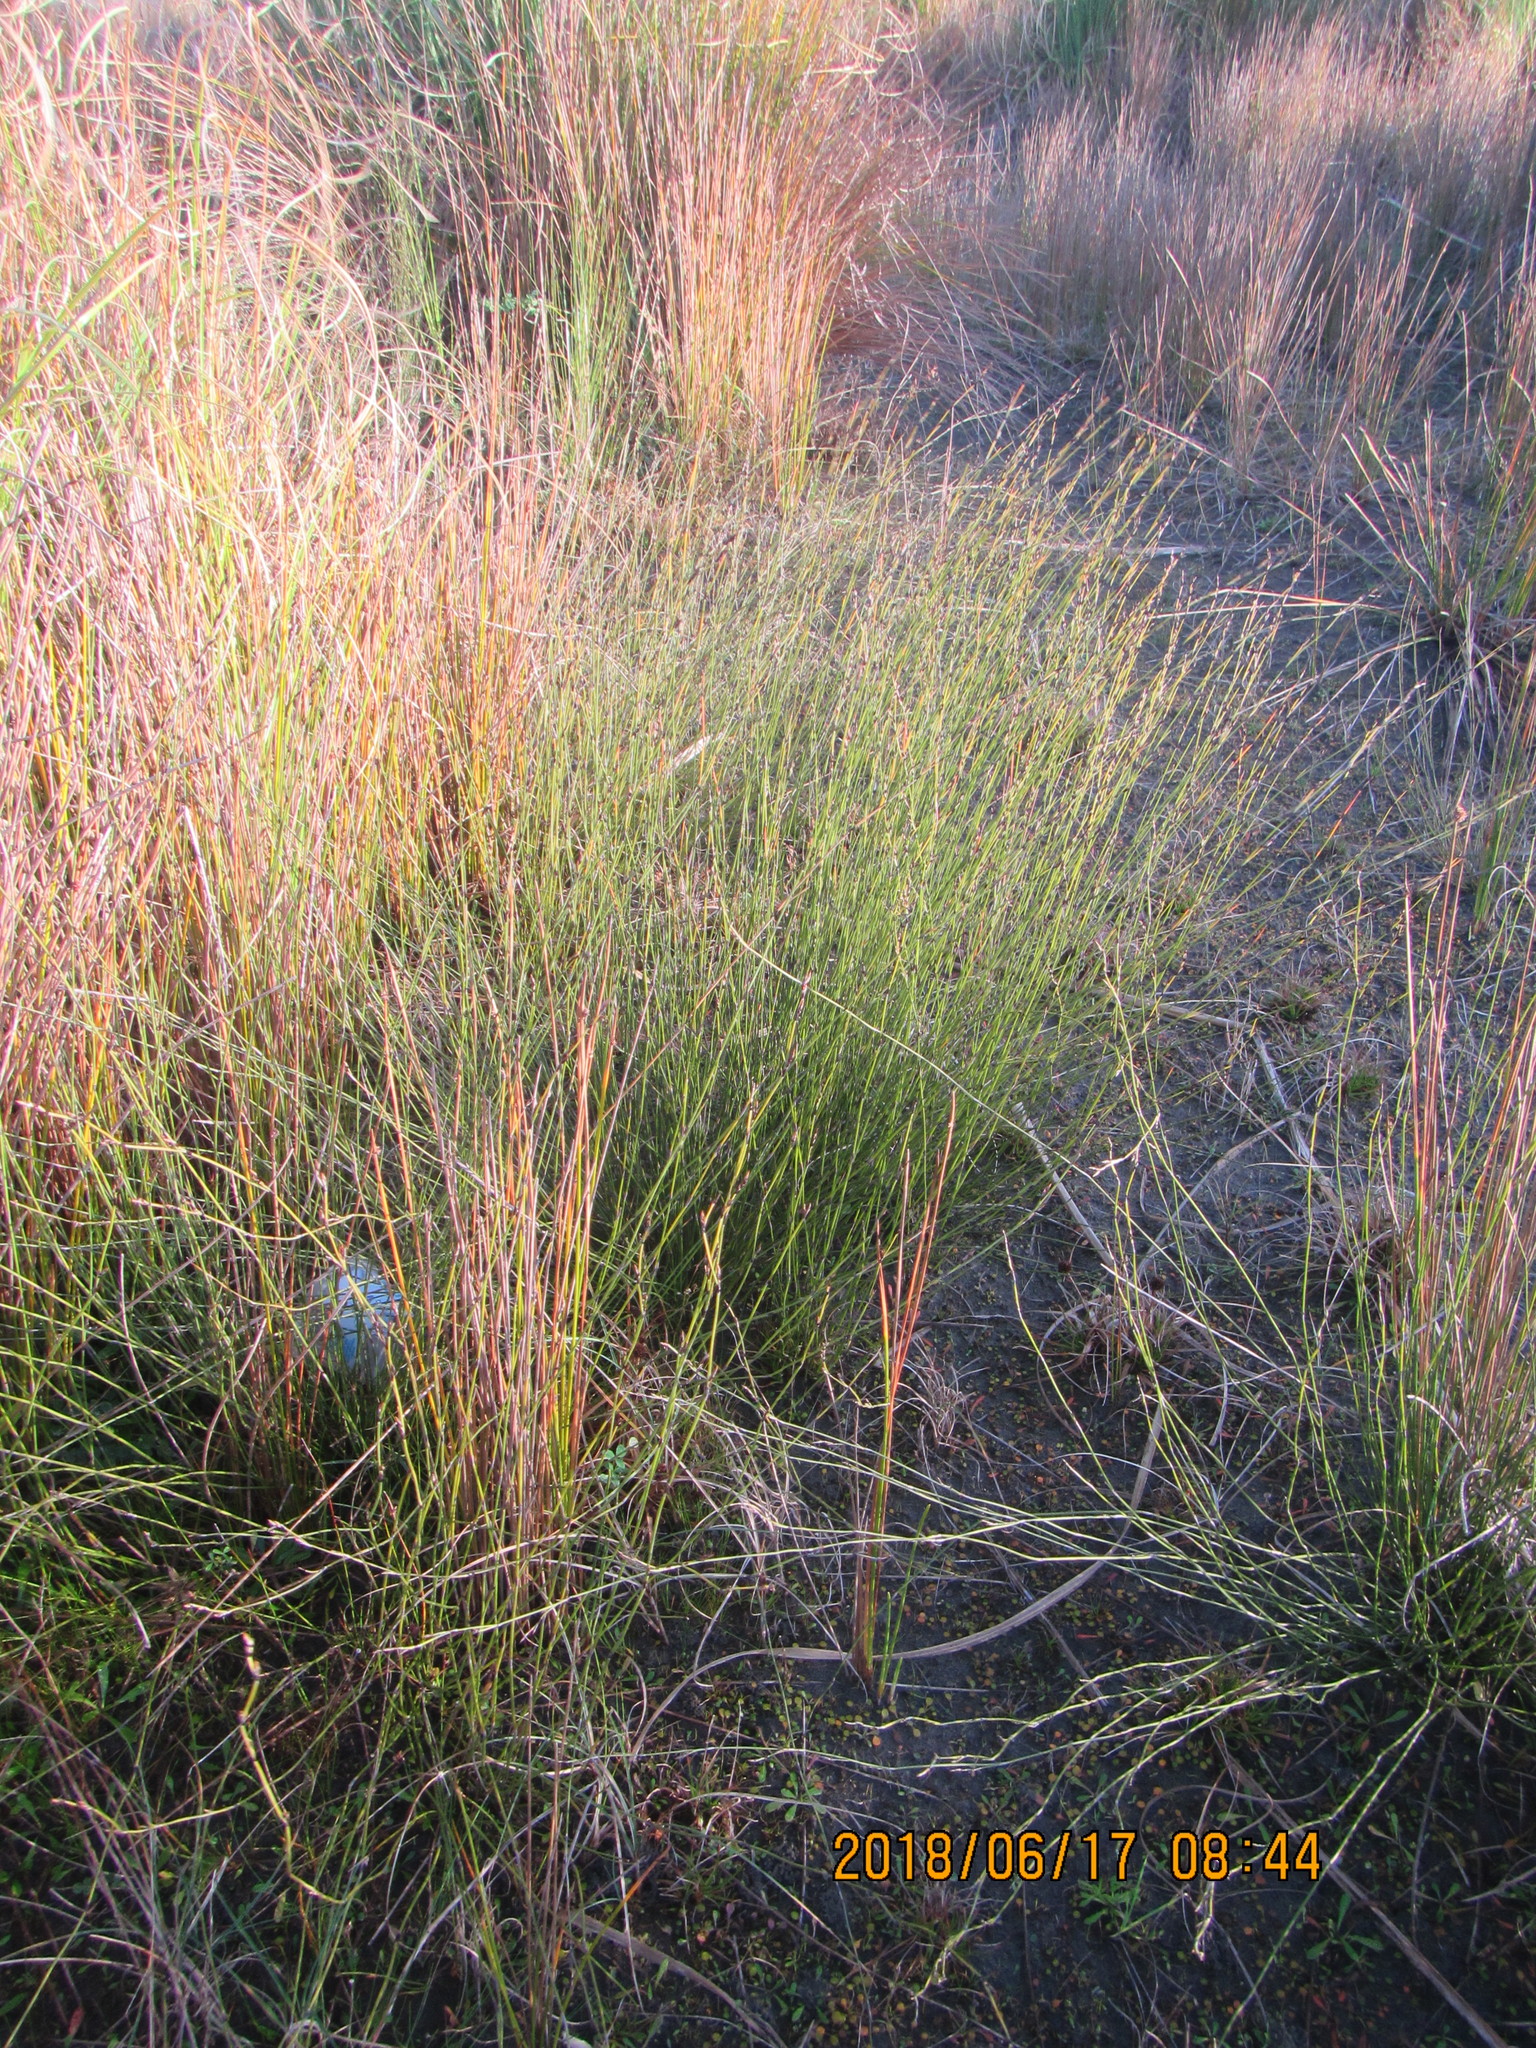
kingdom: Plantae
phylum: Tracheophyta
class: Liliopsida
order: Poales
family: Restionaceae
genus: Apodasmia
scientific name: Apodasmia similis
